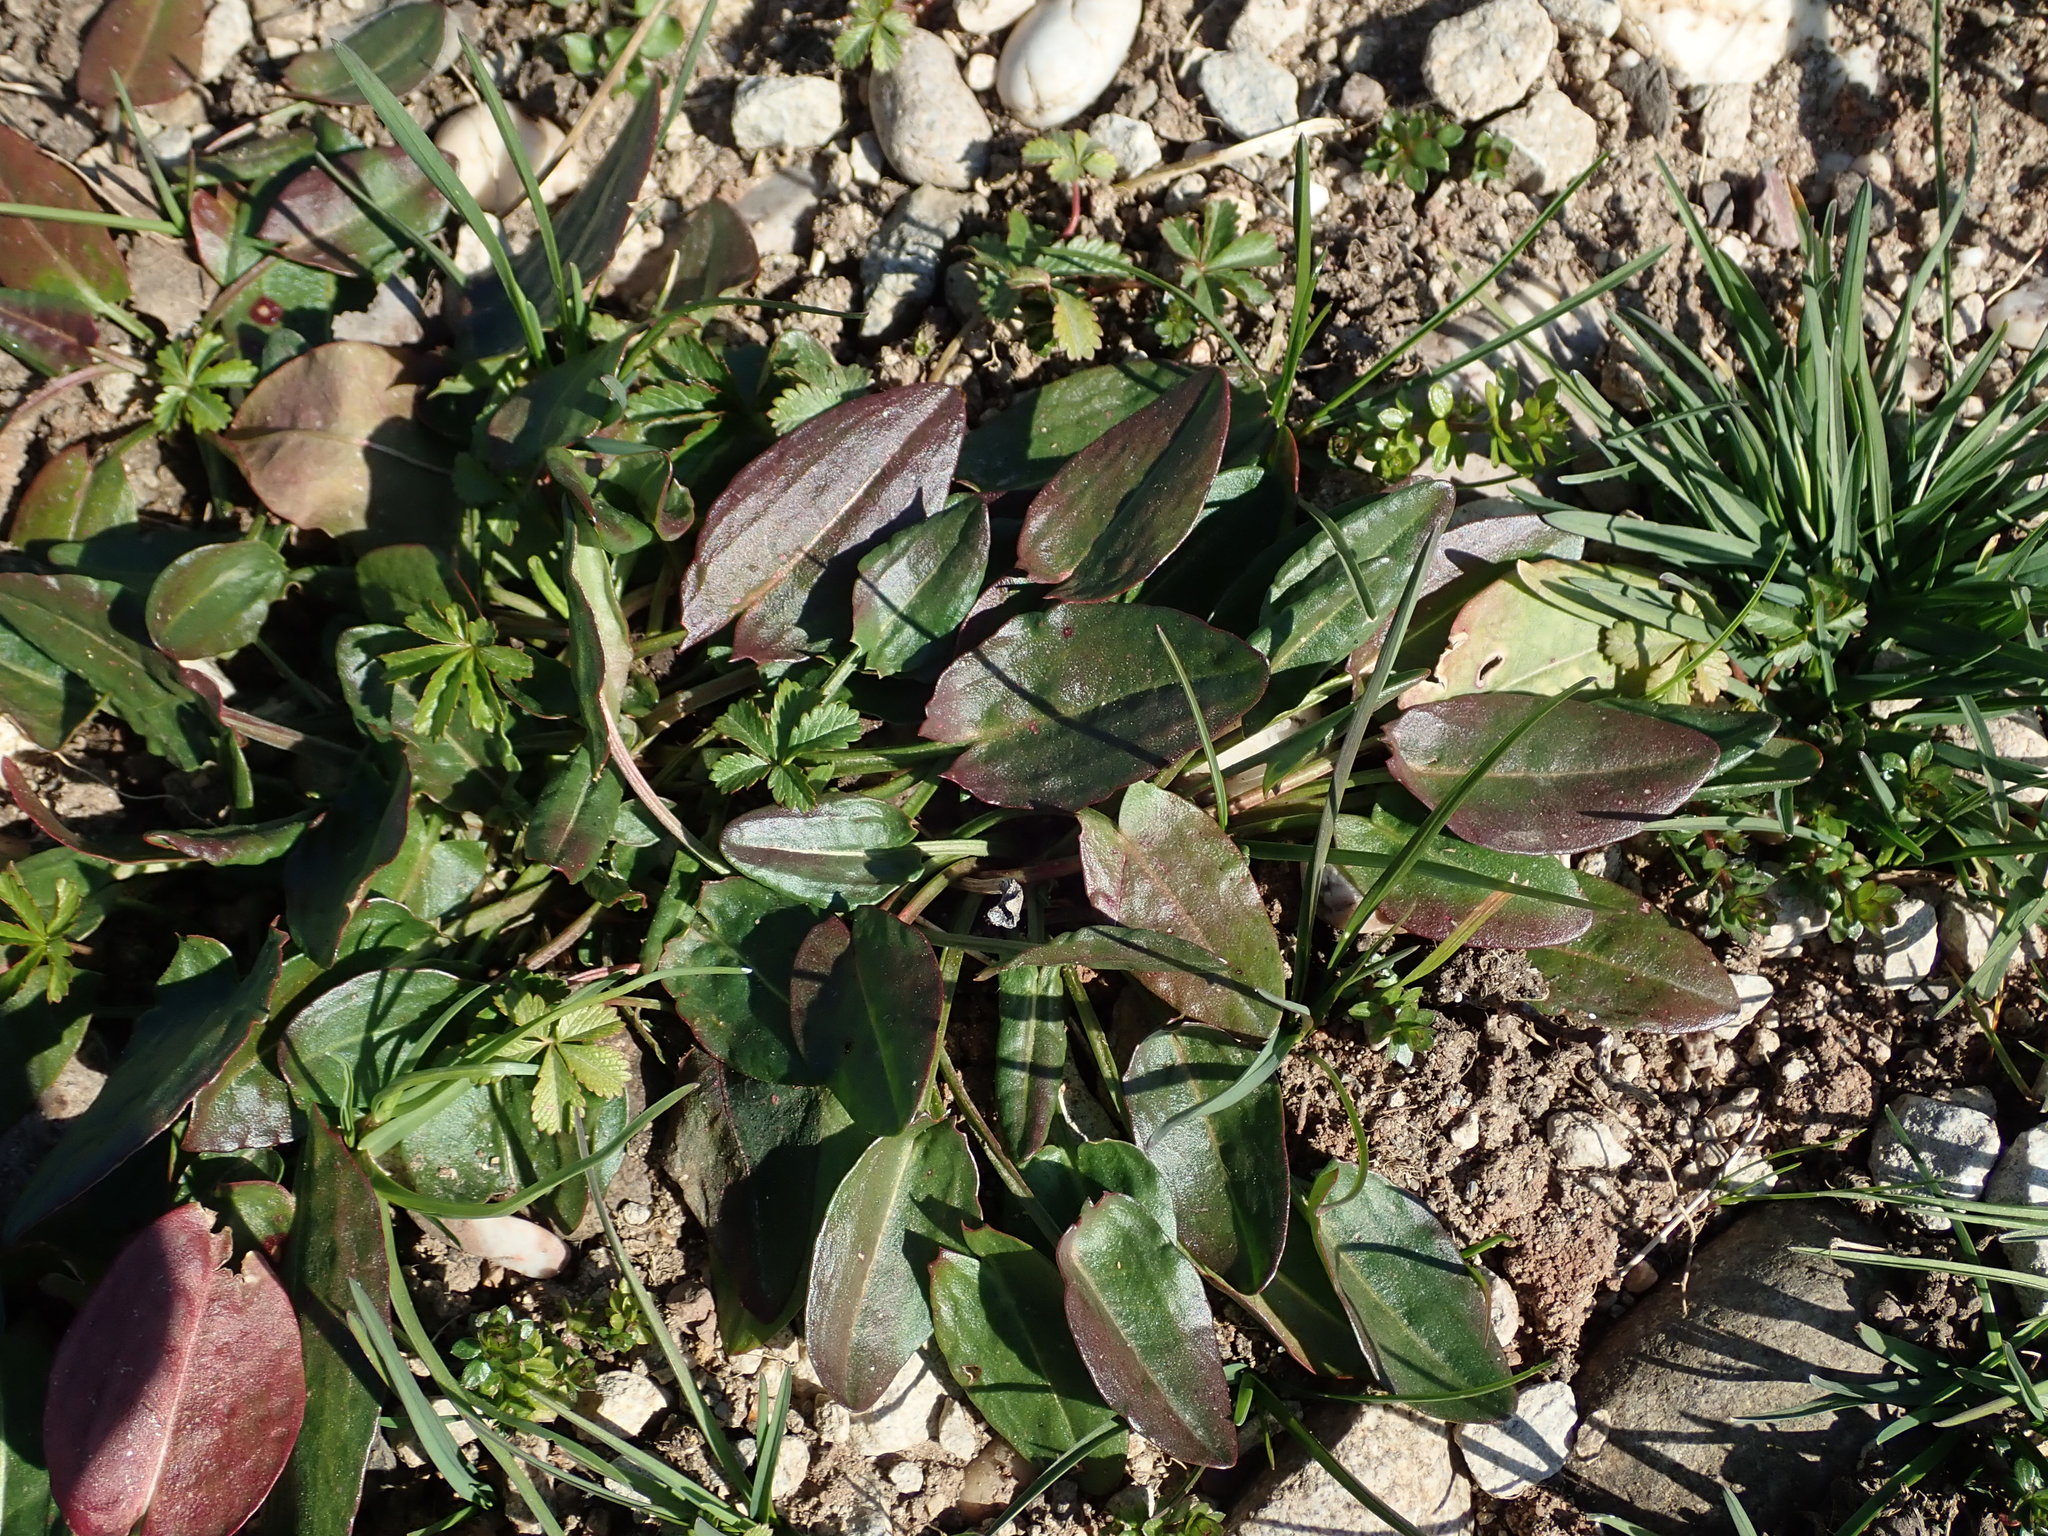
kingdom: Plantae
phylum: Tracheophyta
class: Magnoliopsida
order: Caryophyllales
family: Polygonaceae
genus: Rumex
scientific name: Rumex acetosa
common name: Garden sorrel
